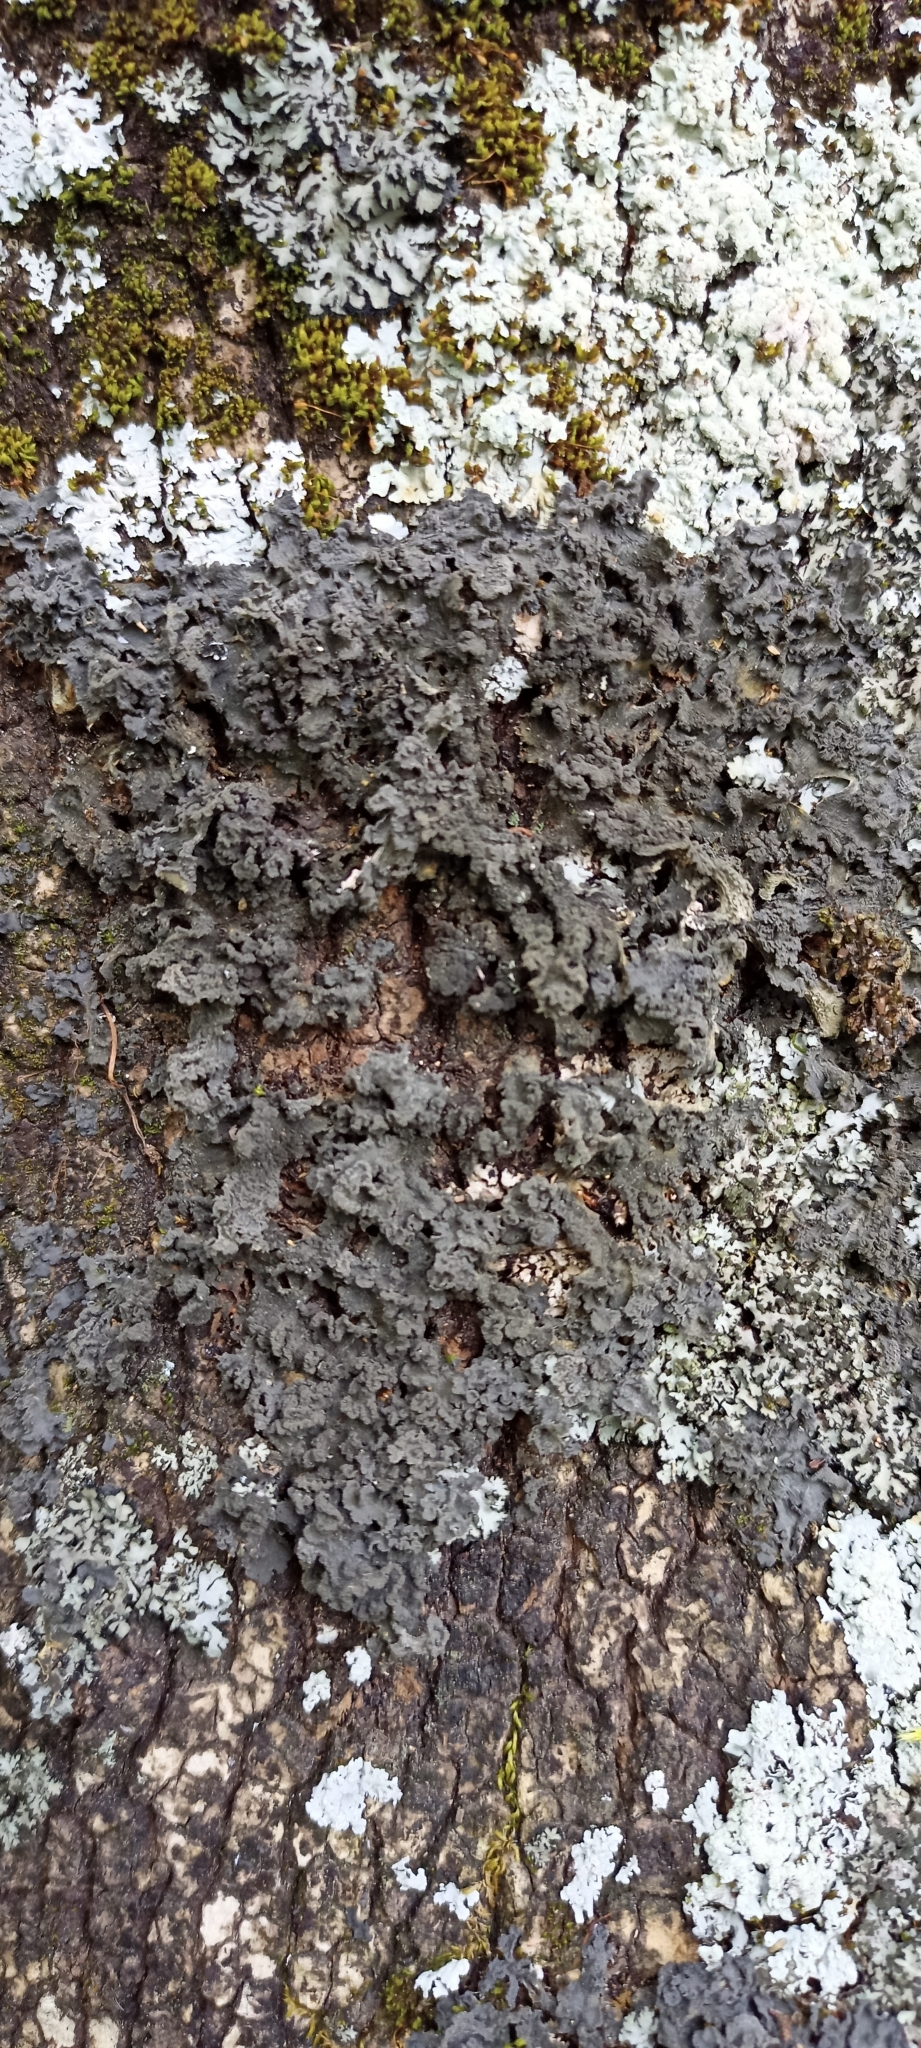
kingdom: Fungi
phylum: Ascomycota
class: Lecanoromycetes
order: Peltigerales
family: Collemataceae
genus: Leptogium
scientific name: Leptogium brebissonii
